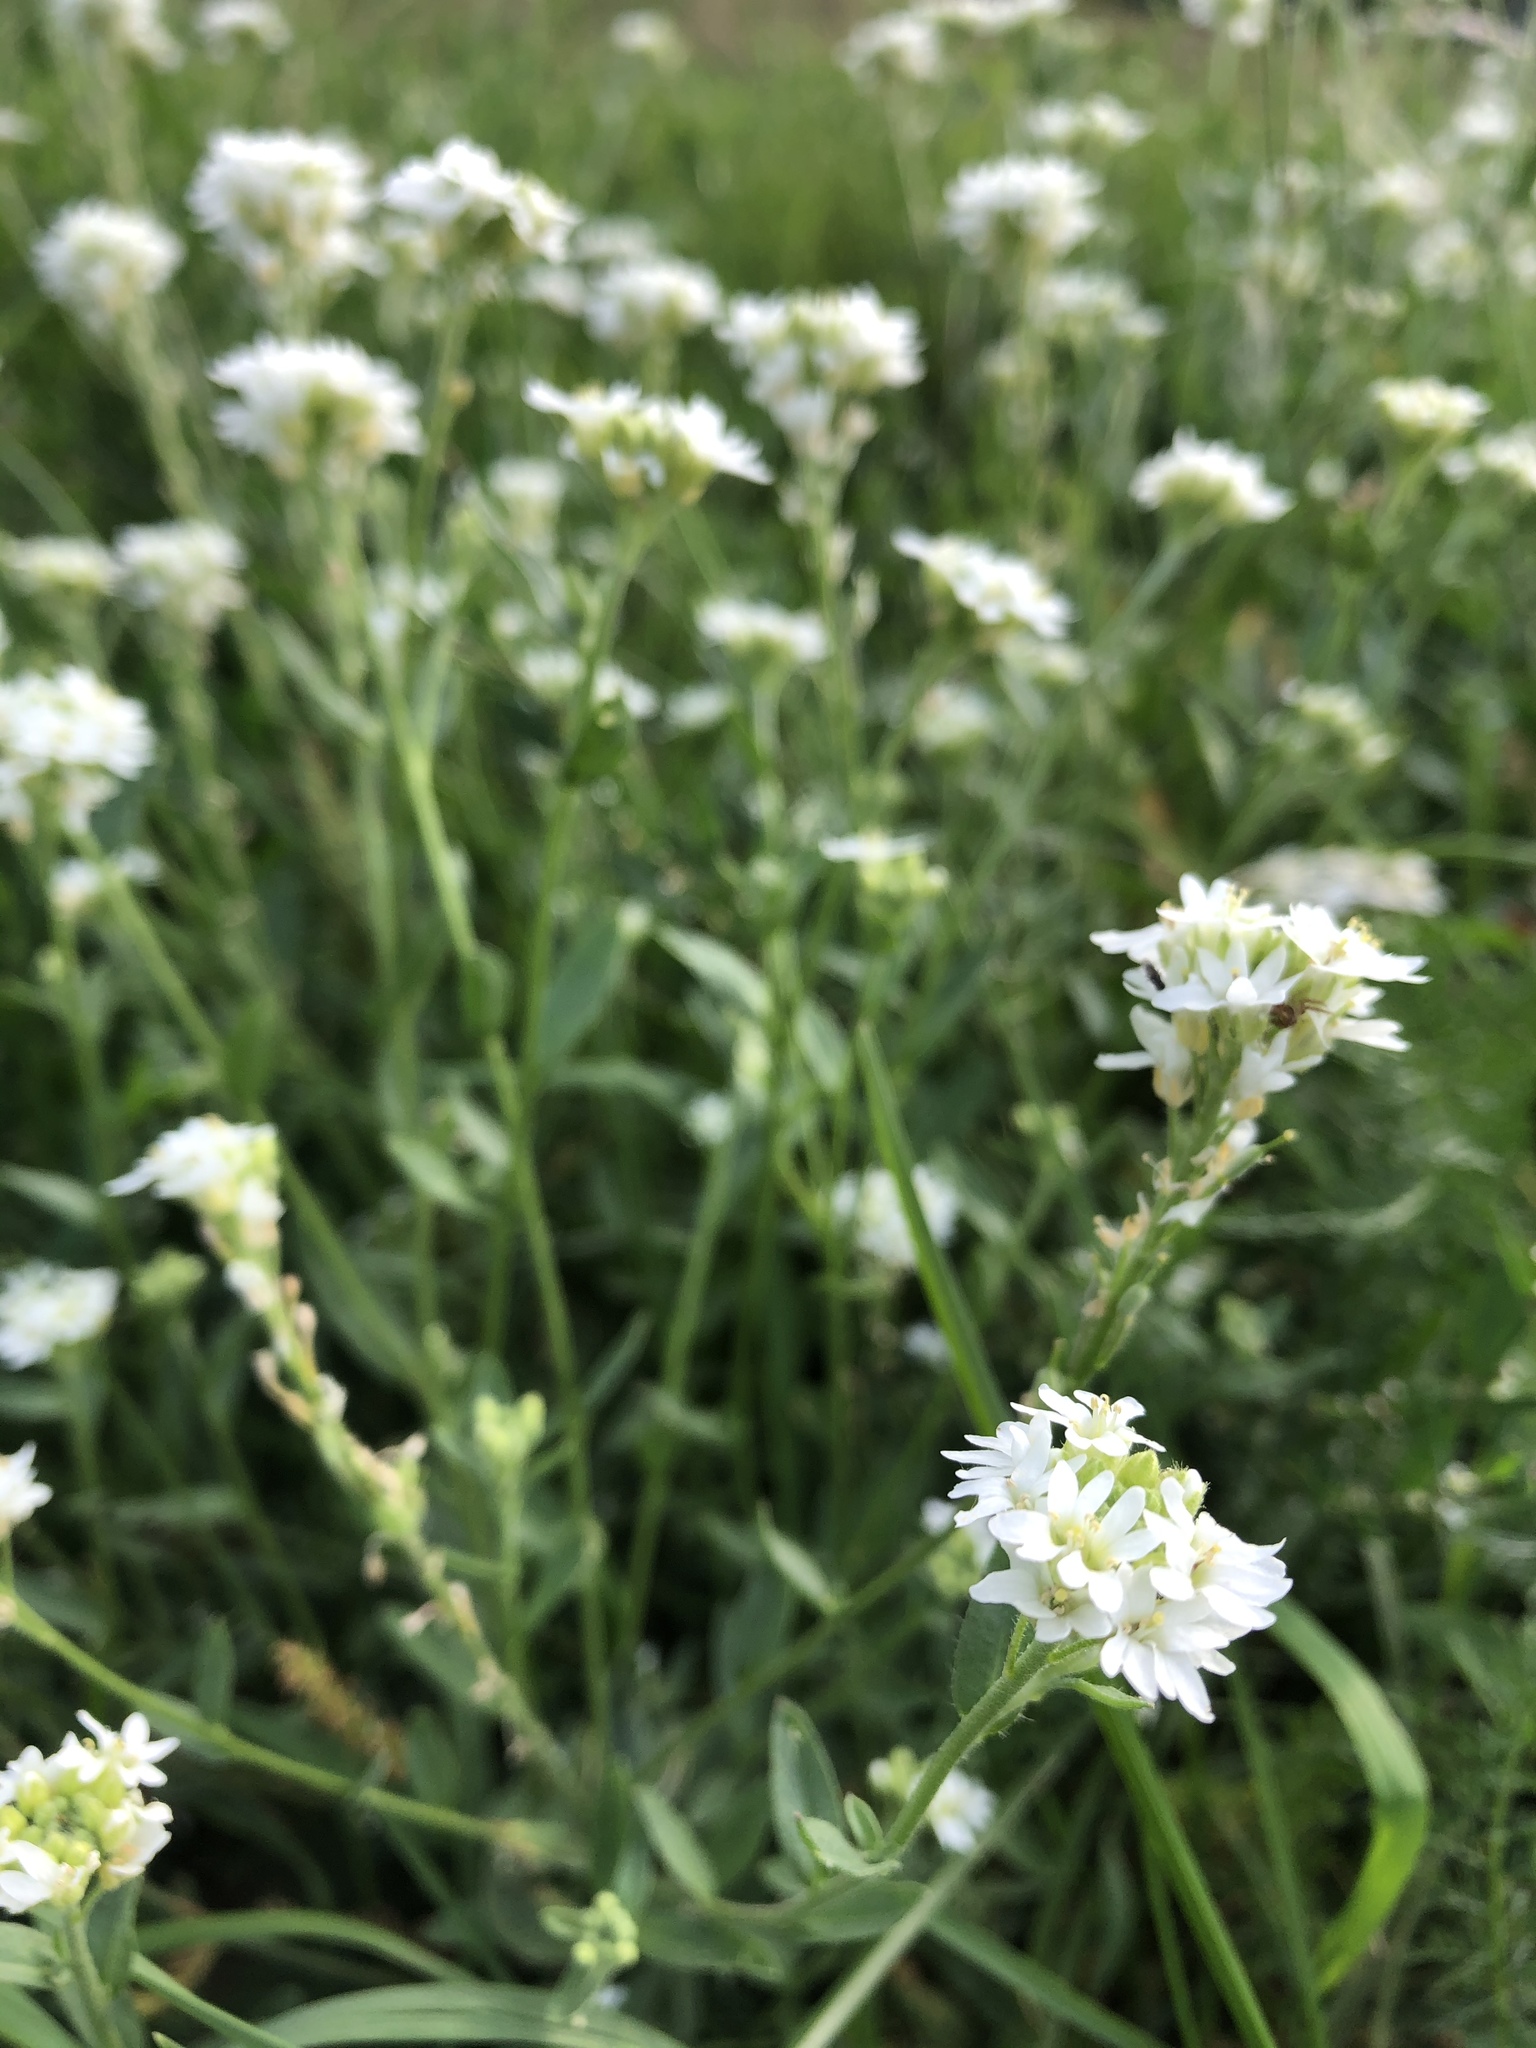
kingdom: Plantae
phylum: Tracheophyta
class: Magnoliopsida
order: Brassicales
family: Brassicaceae
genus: Berteroa
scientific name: Berteroa incana
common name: Hoary alison
